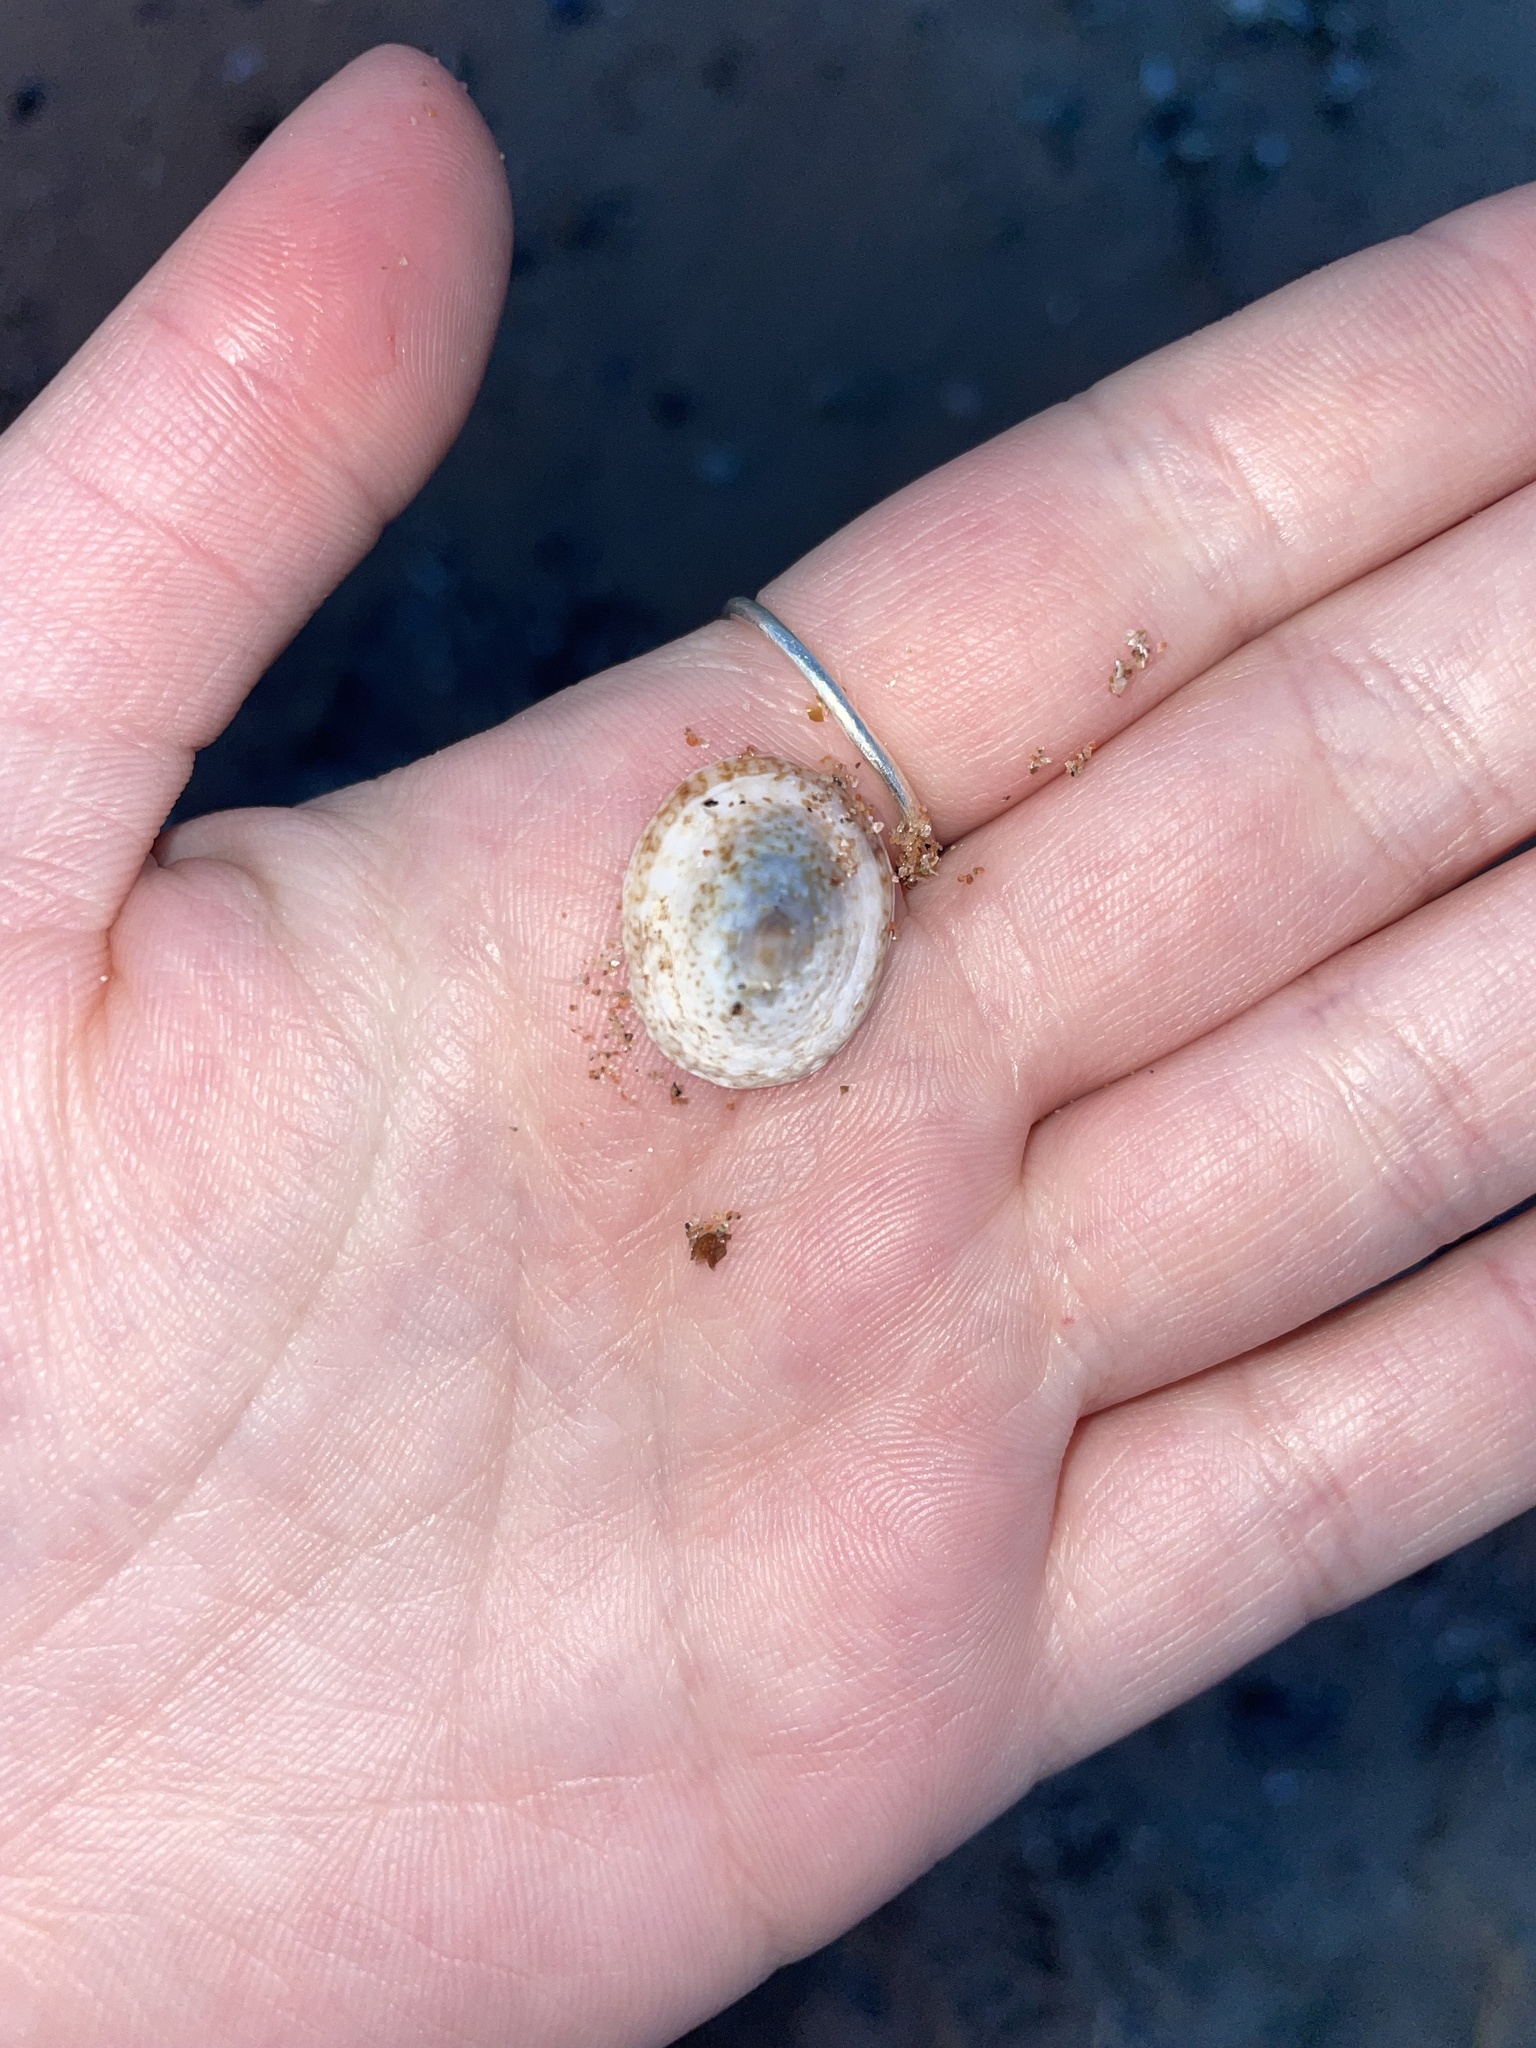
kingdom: Animalia
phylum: Mollusca
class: Gastropoda
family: Lottiidae
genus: Testudinalia
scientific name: Testudinalia testudinalis
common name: Common tortoiseshell limpet
